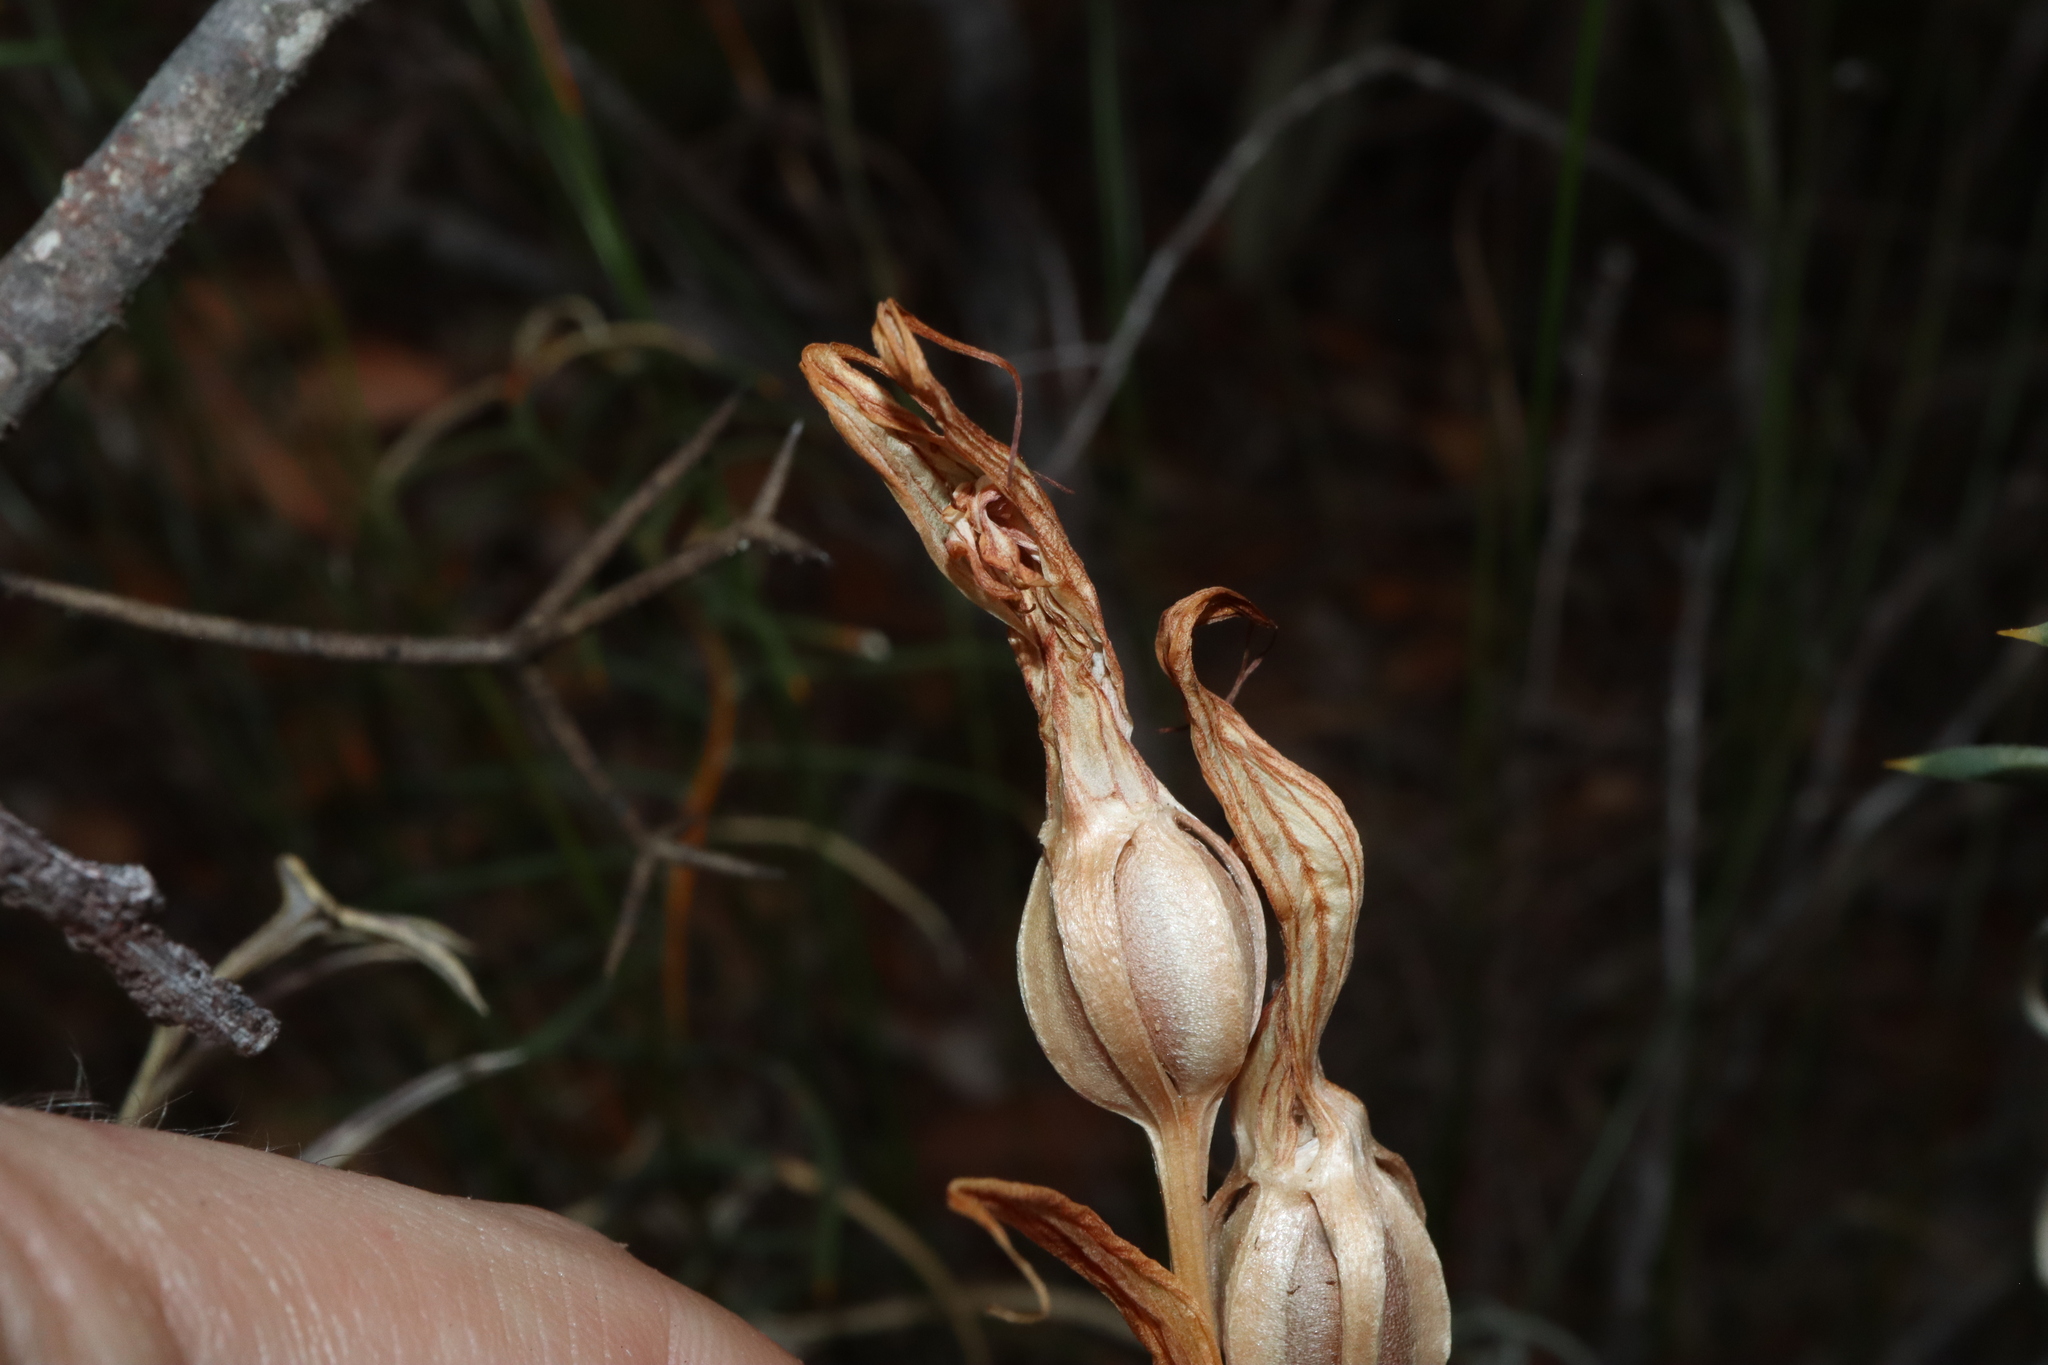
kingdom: Plantae
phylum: Tracheophyta
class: Liliopsida
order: Asparagales
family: Orchidaceae
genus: Pterostylis
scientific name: Pterostylis recurva
